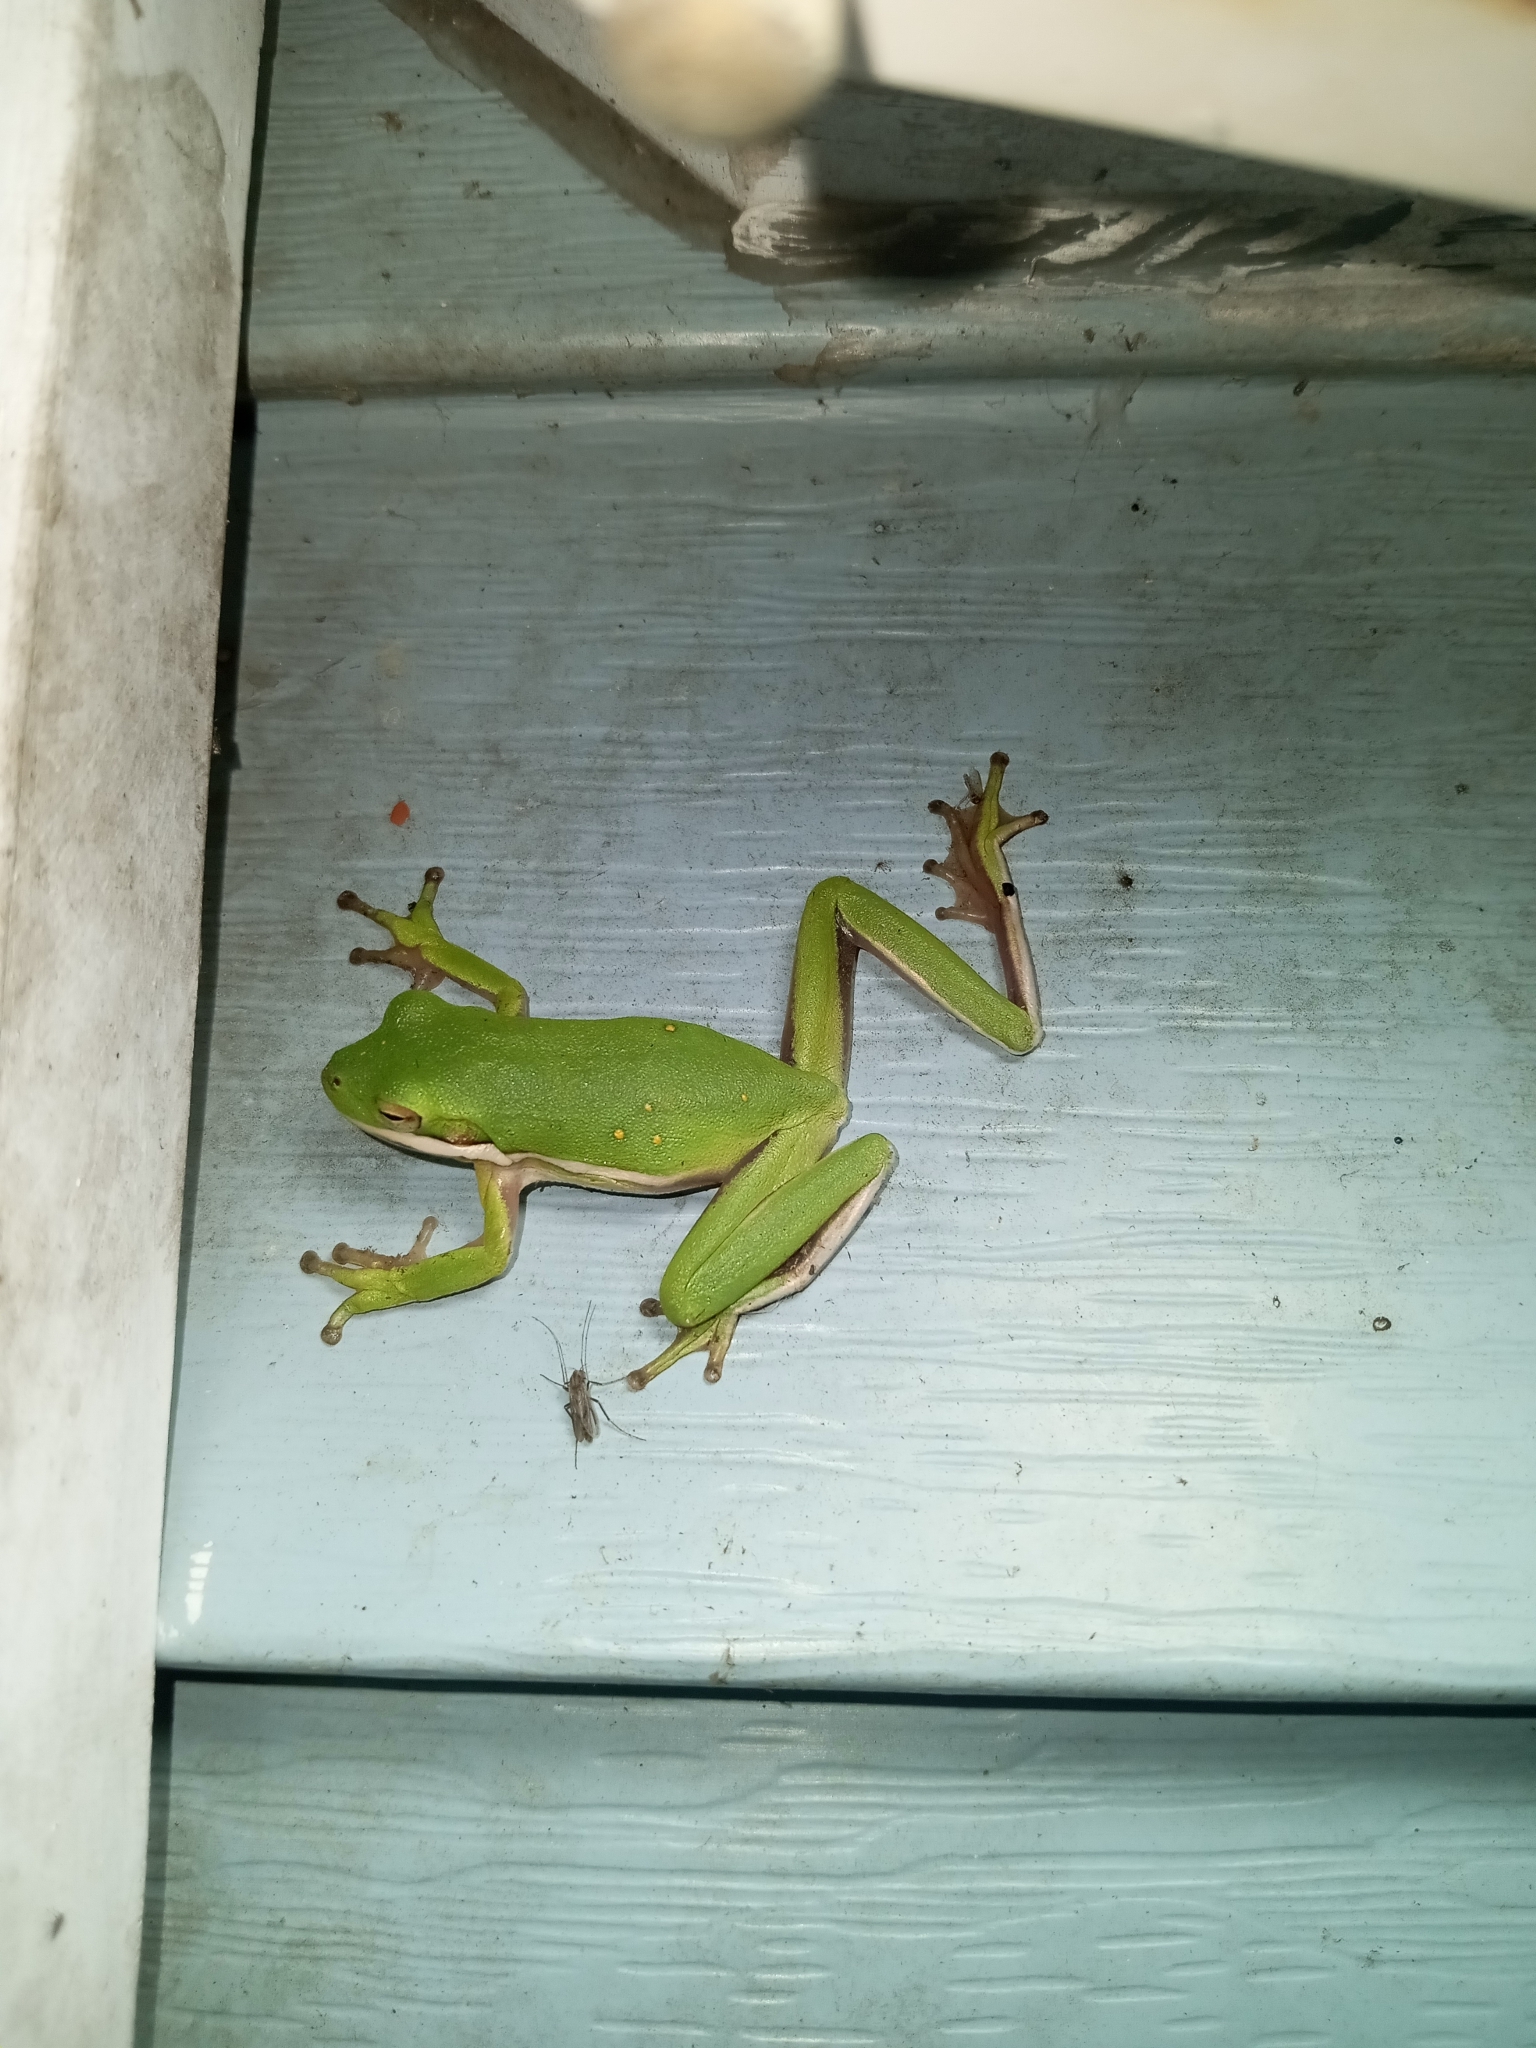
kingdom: Animalia
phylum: Chordata
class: Amphibia
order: Anura
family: Hylidae
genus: Dryophytes
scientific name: Dryophytes cinereus
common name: Green treefrog
